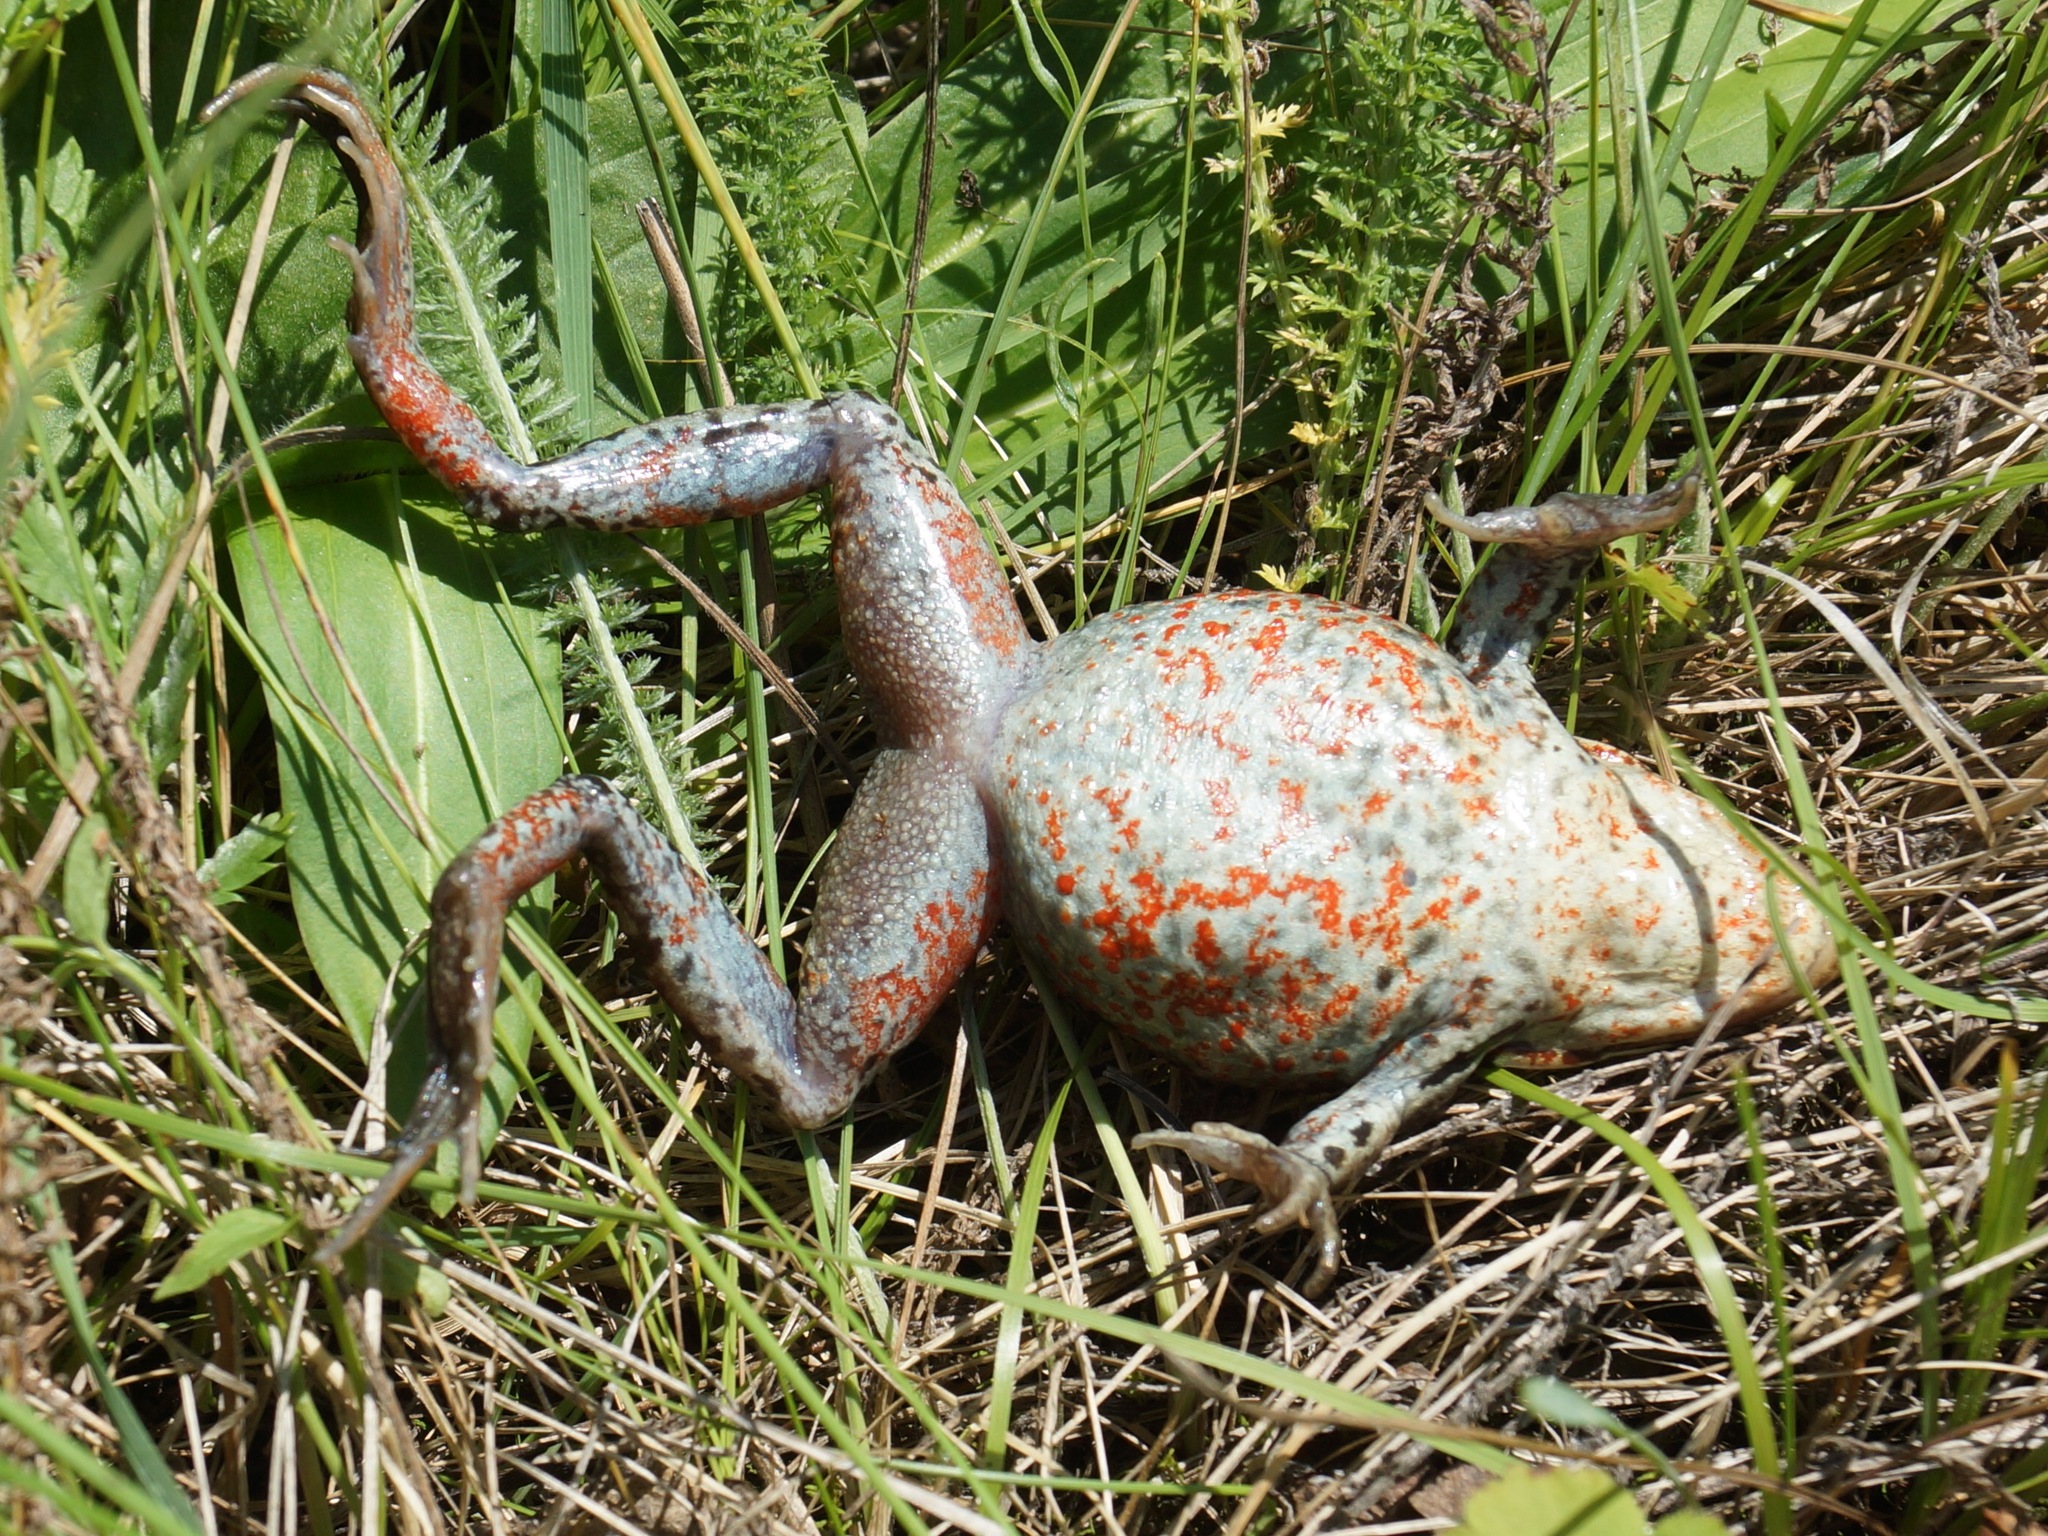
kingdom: Animalia
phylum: Chordata
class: Amphibia
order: Anura
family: Ranidae
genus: Rana
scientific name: Rana amurensis
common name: Amur brown frog
